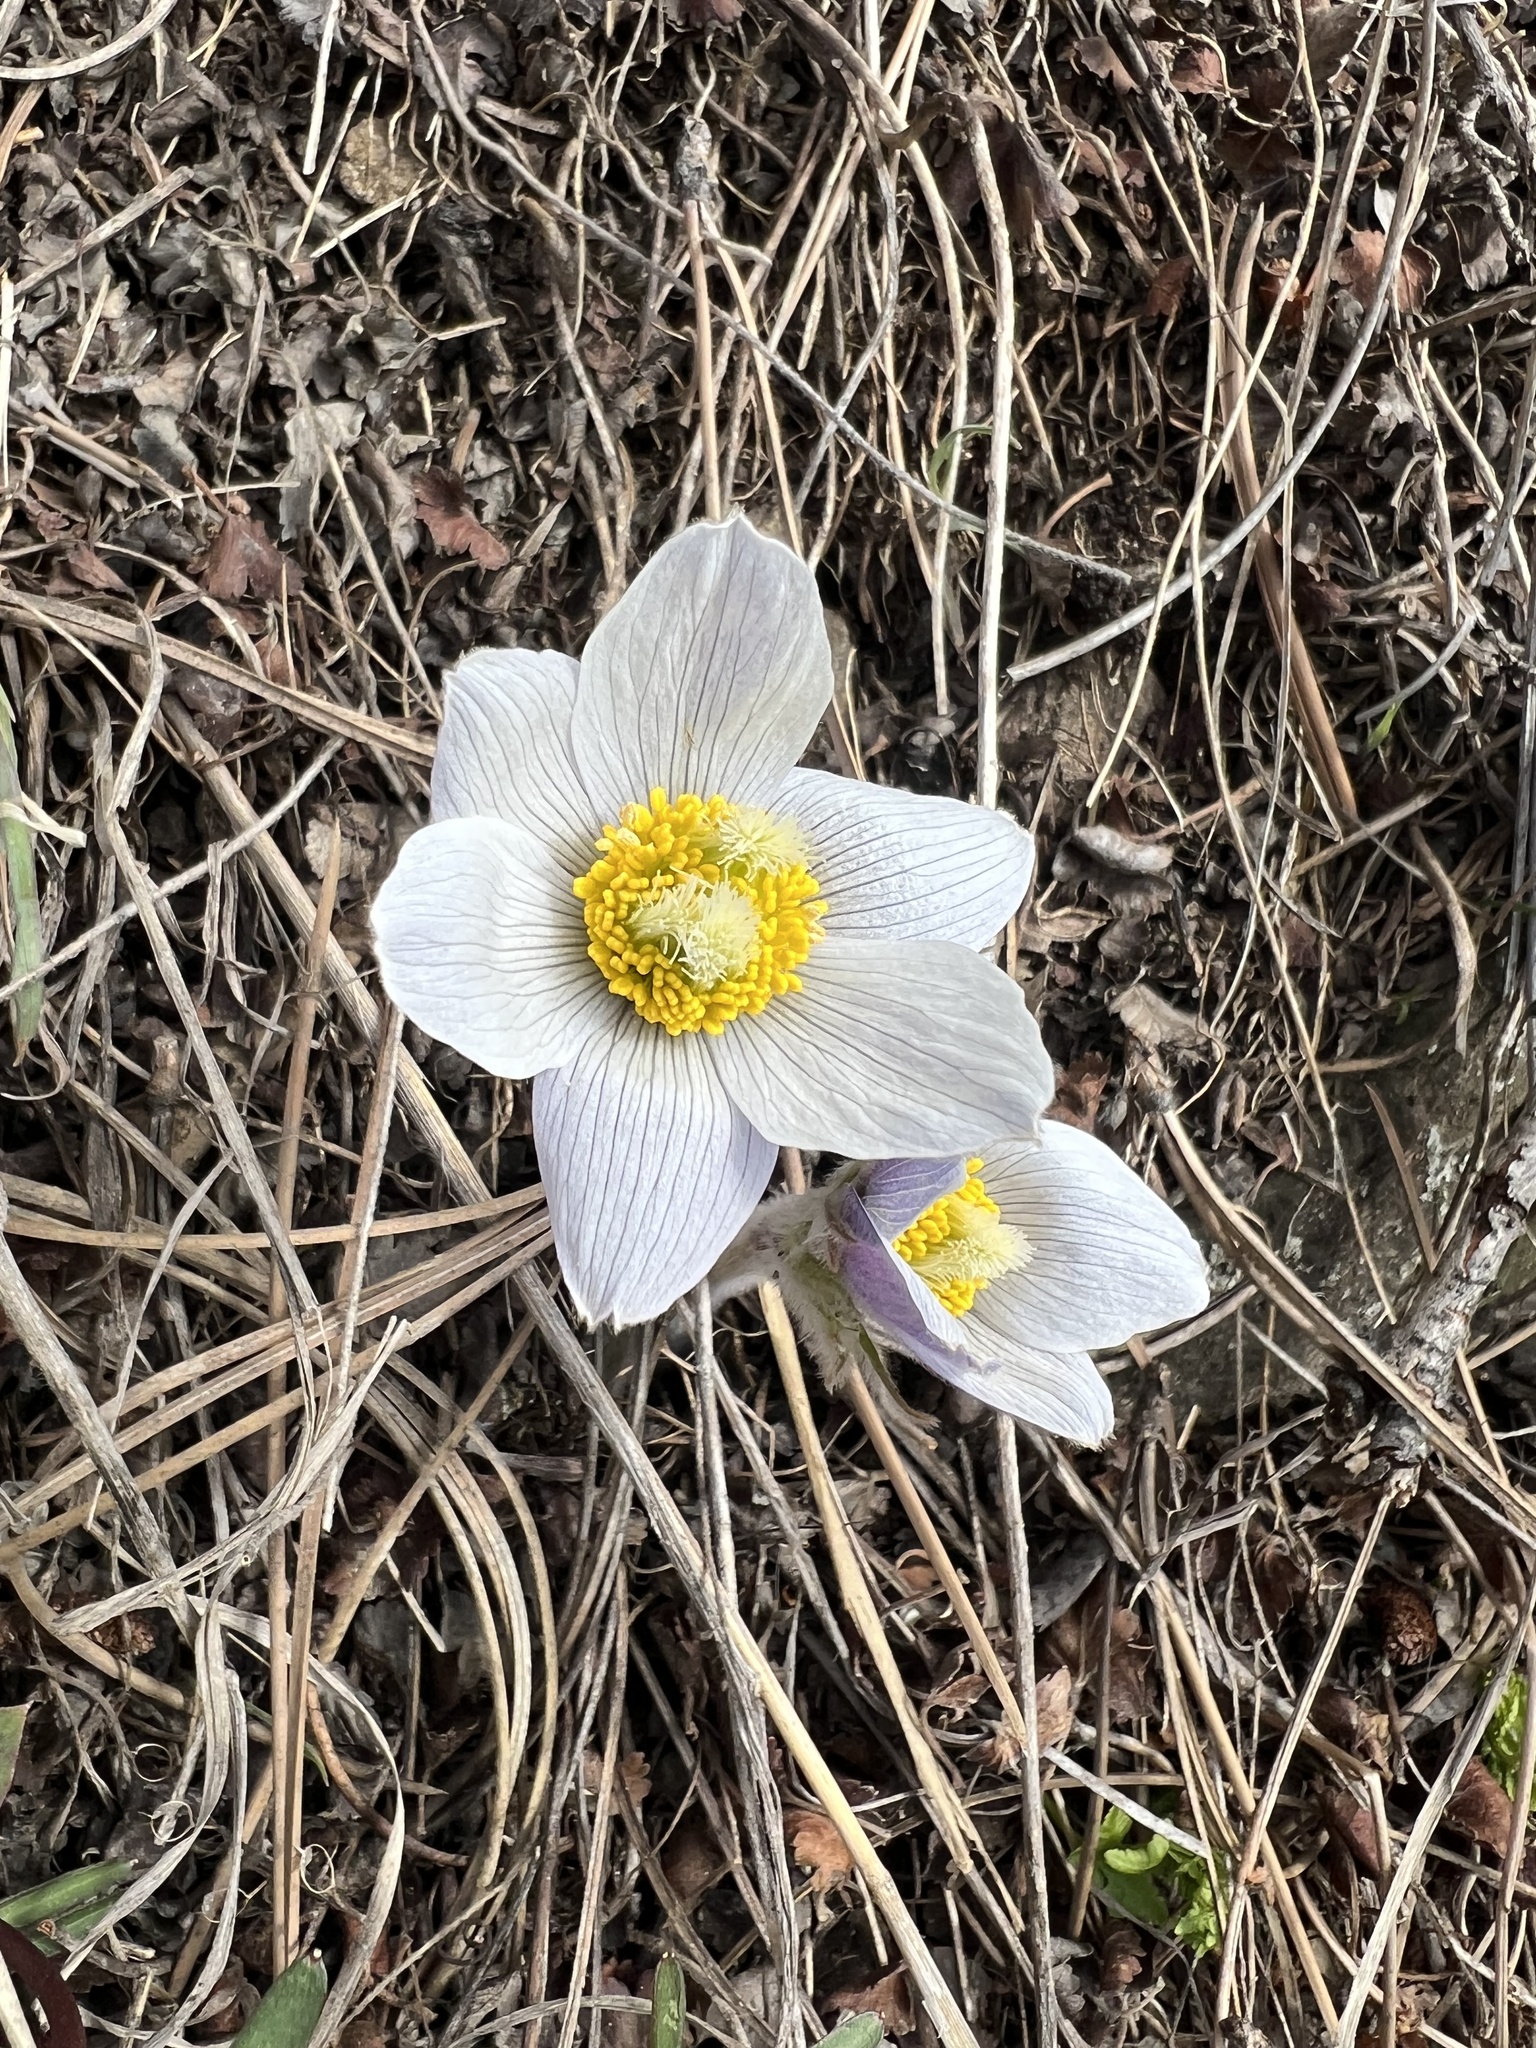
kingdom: Plantae
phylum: Tracheophyta
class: Magnoliopsida
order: Ranunculales
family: Ranunculaceae
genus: Pulsatilla
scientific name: Pulsatilla nuttalliana
